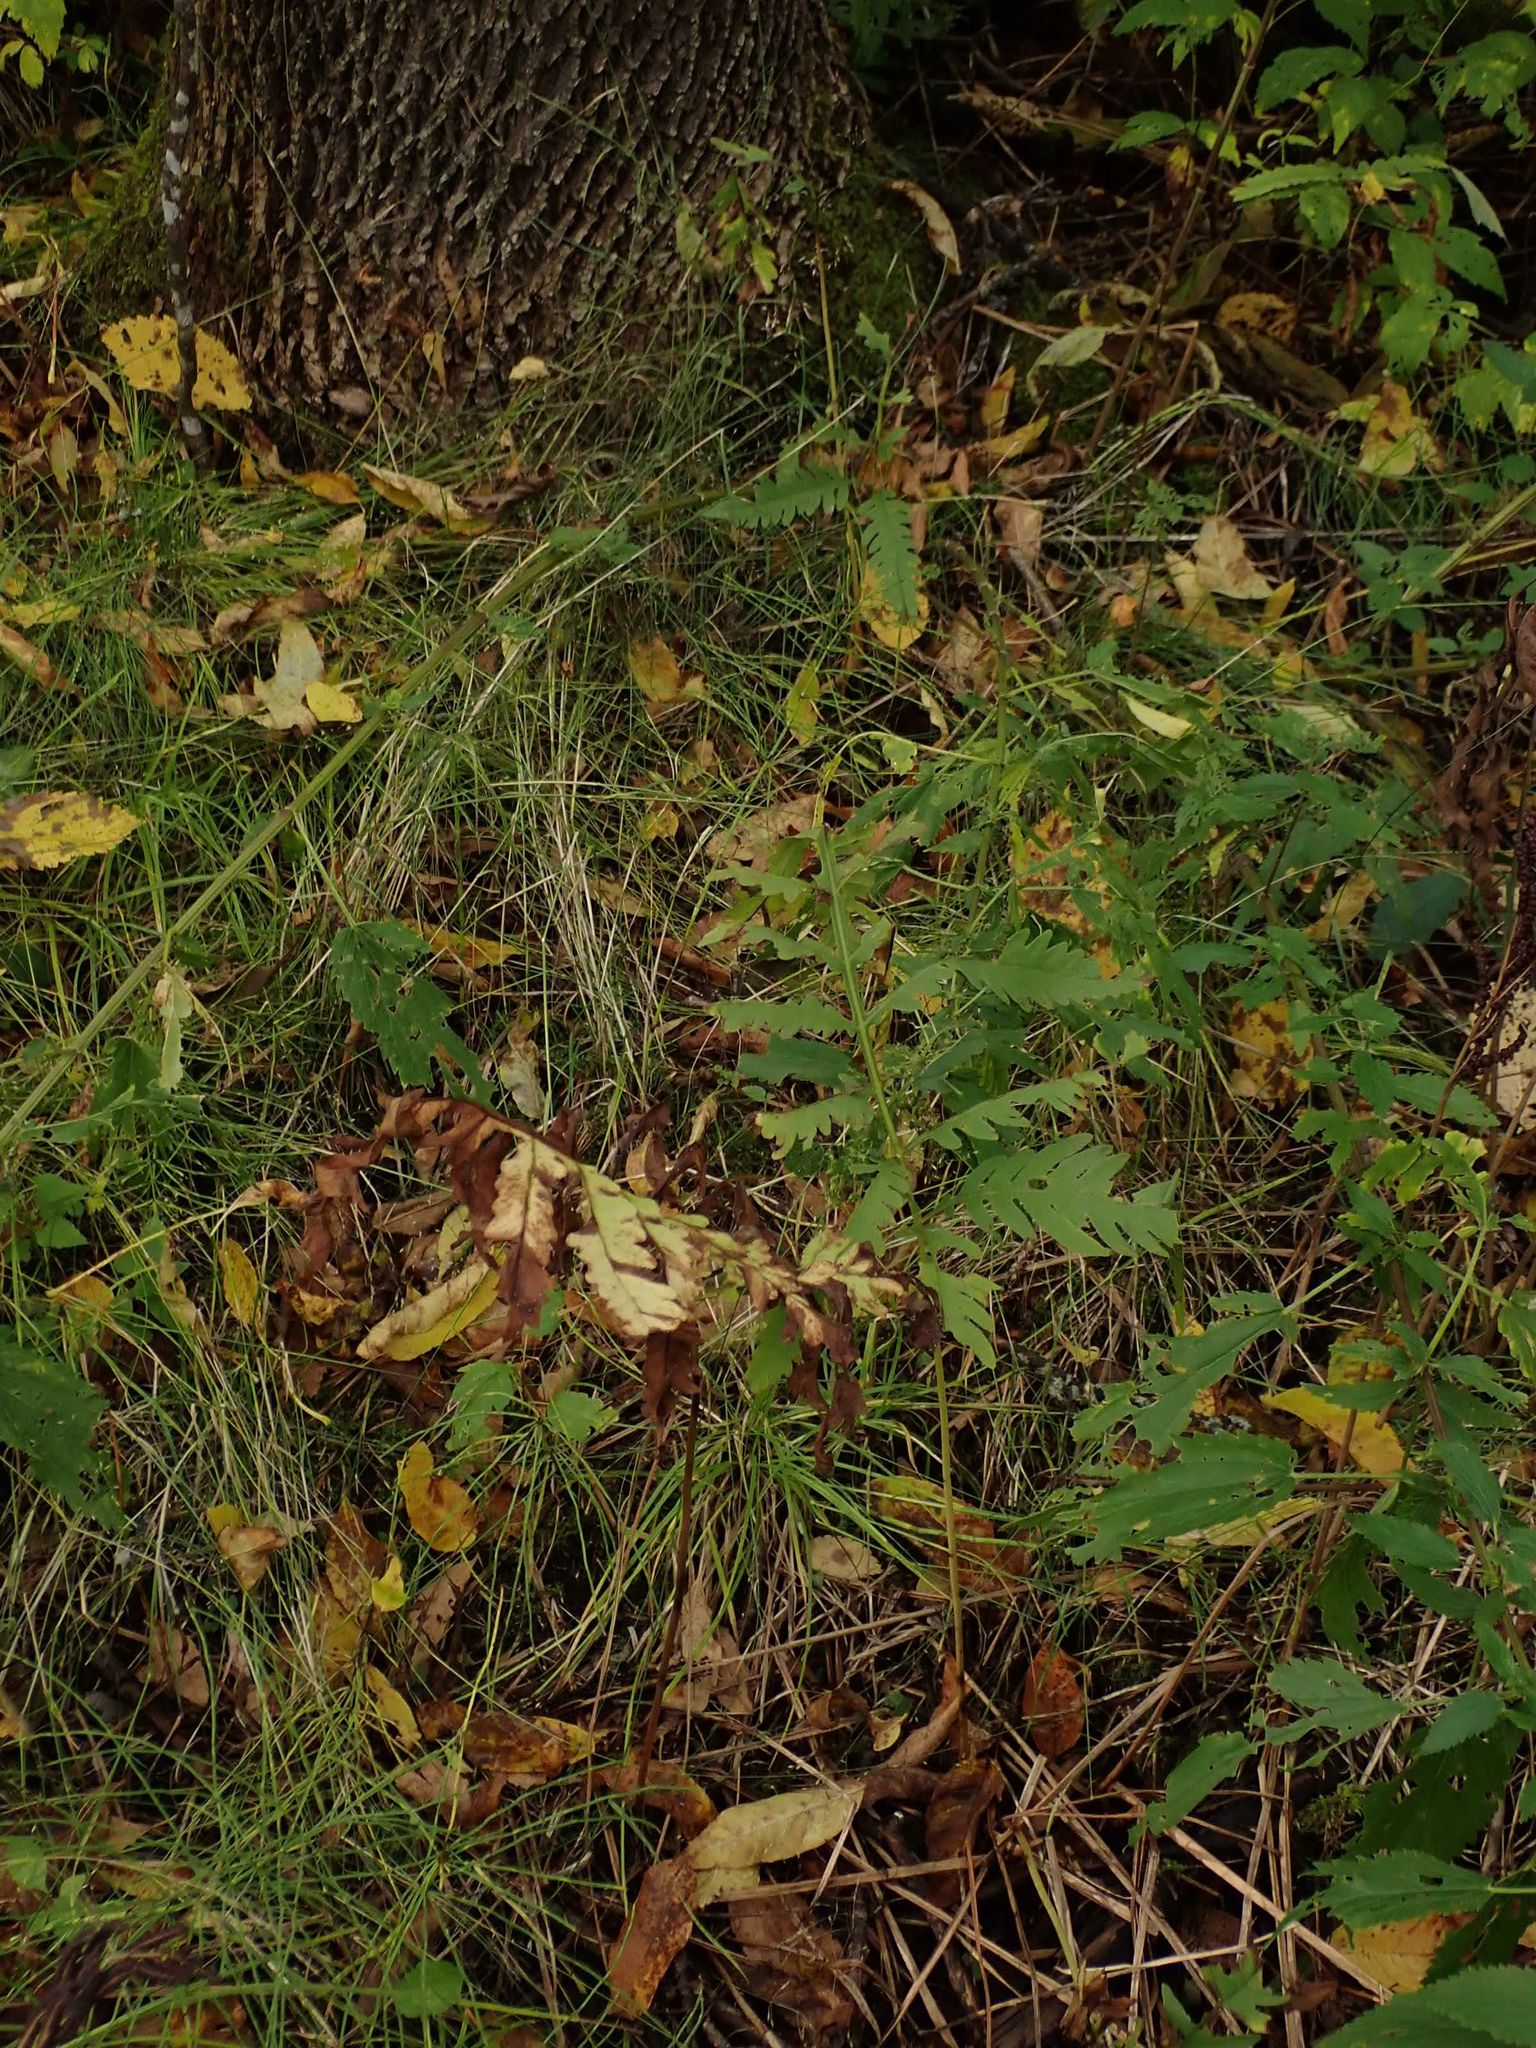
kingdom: Plantae
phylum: Tracheophyta
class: Polypodiopsida
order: Polypodiales
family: Onocleaceae
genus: Onoclea
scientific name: Onoclea sensibilis
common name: Sensitive fern
